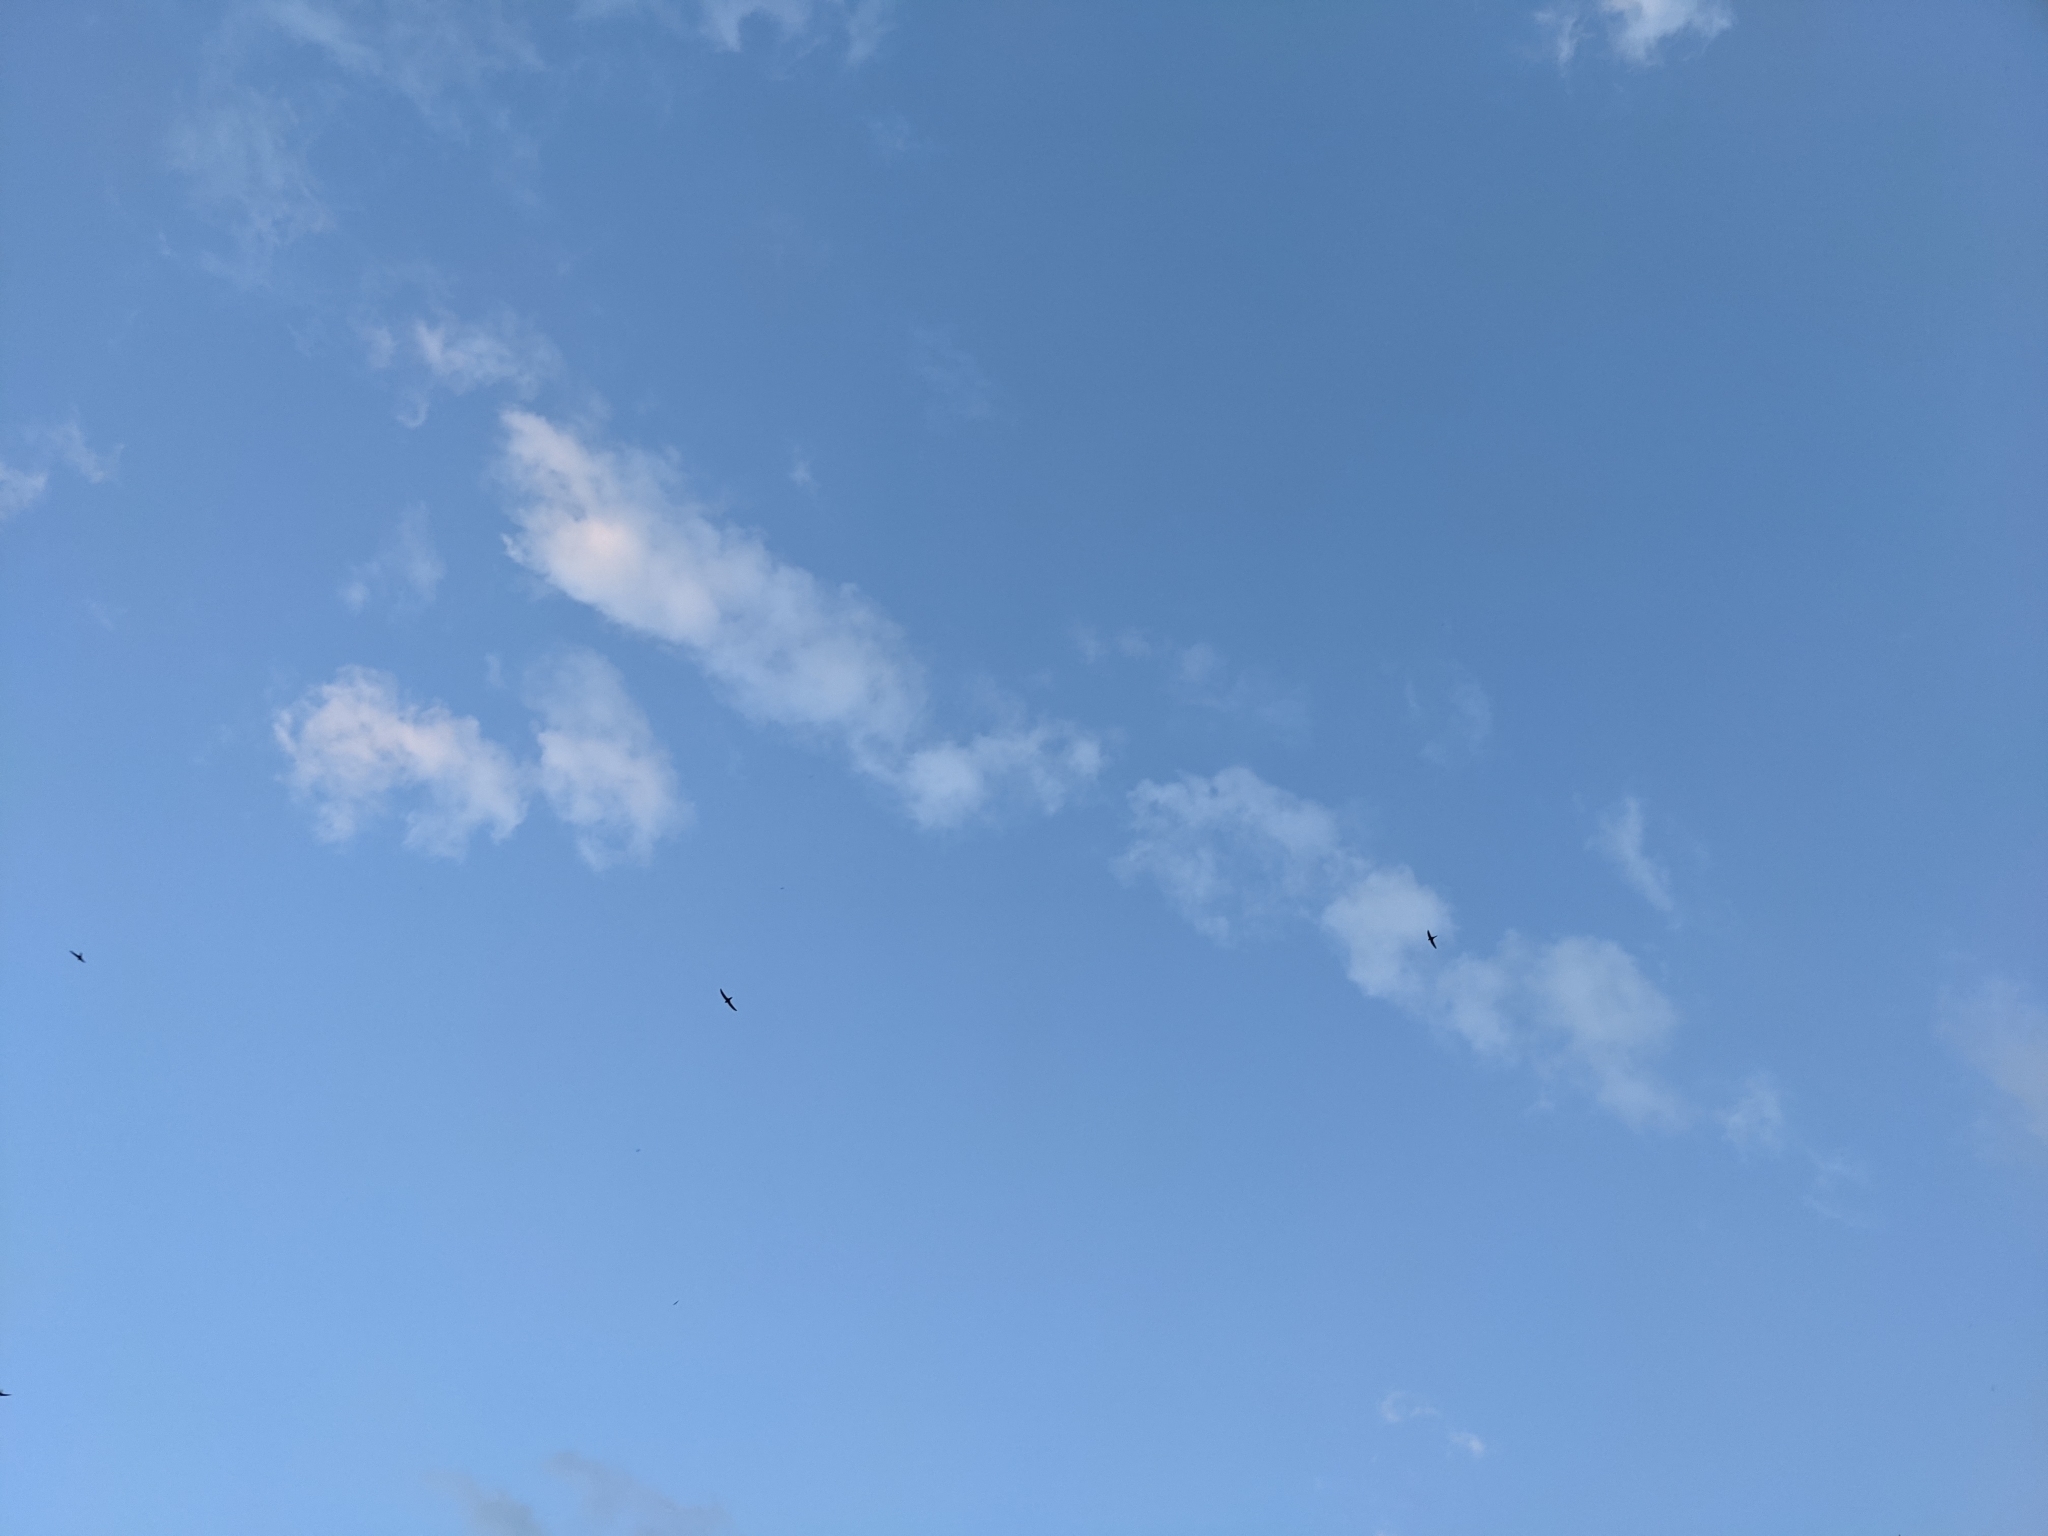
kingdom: Animalia
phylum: Chordata
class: Aves
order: Apodiformes
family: Apodidae
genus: Apus
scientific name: Apus apus
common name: Common swift
